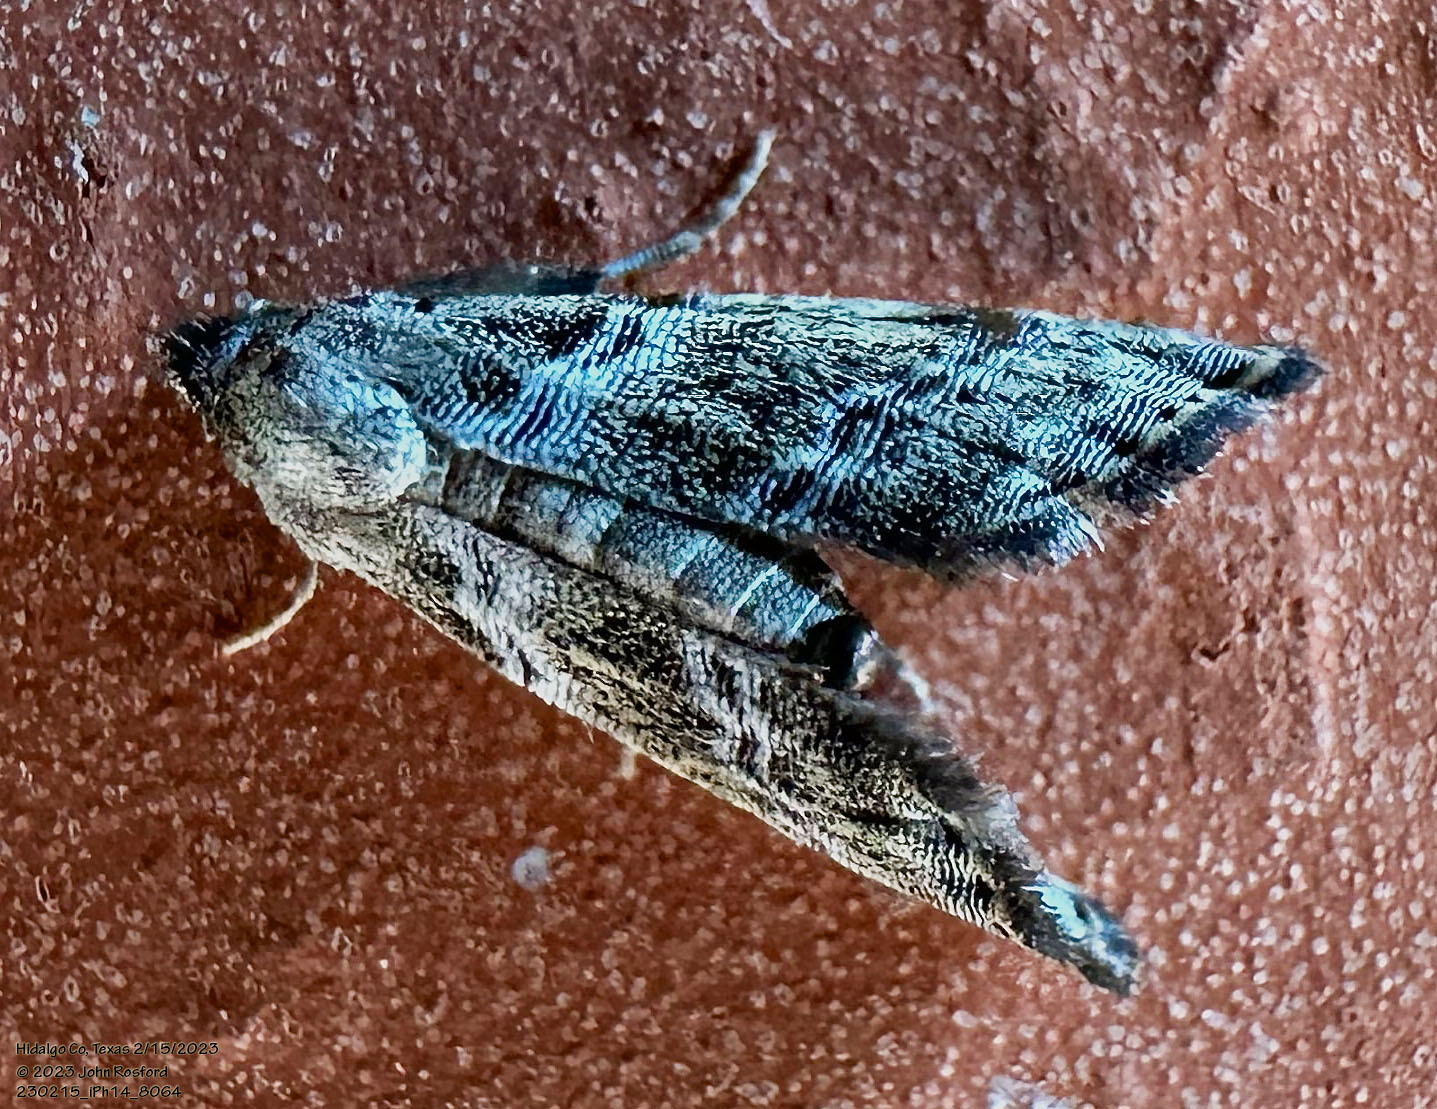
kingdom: Animalia
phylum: Arthropoda
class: Insecta
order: Lepidoptera
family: Noctuidae
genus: Abablemma
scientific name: Abablemma bilineata
